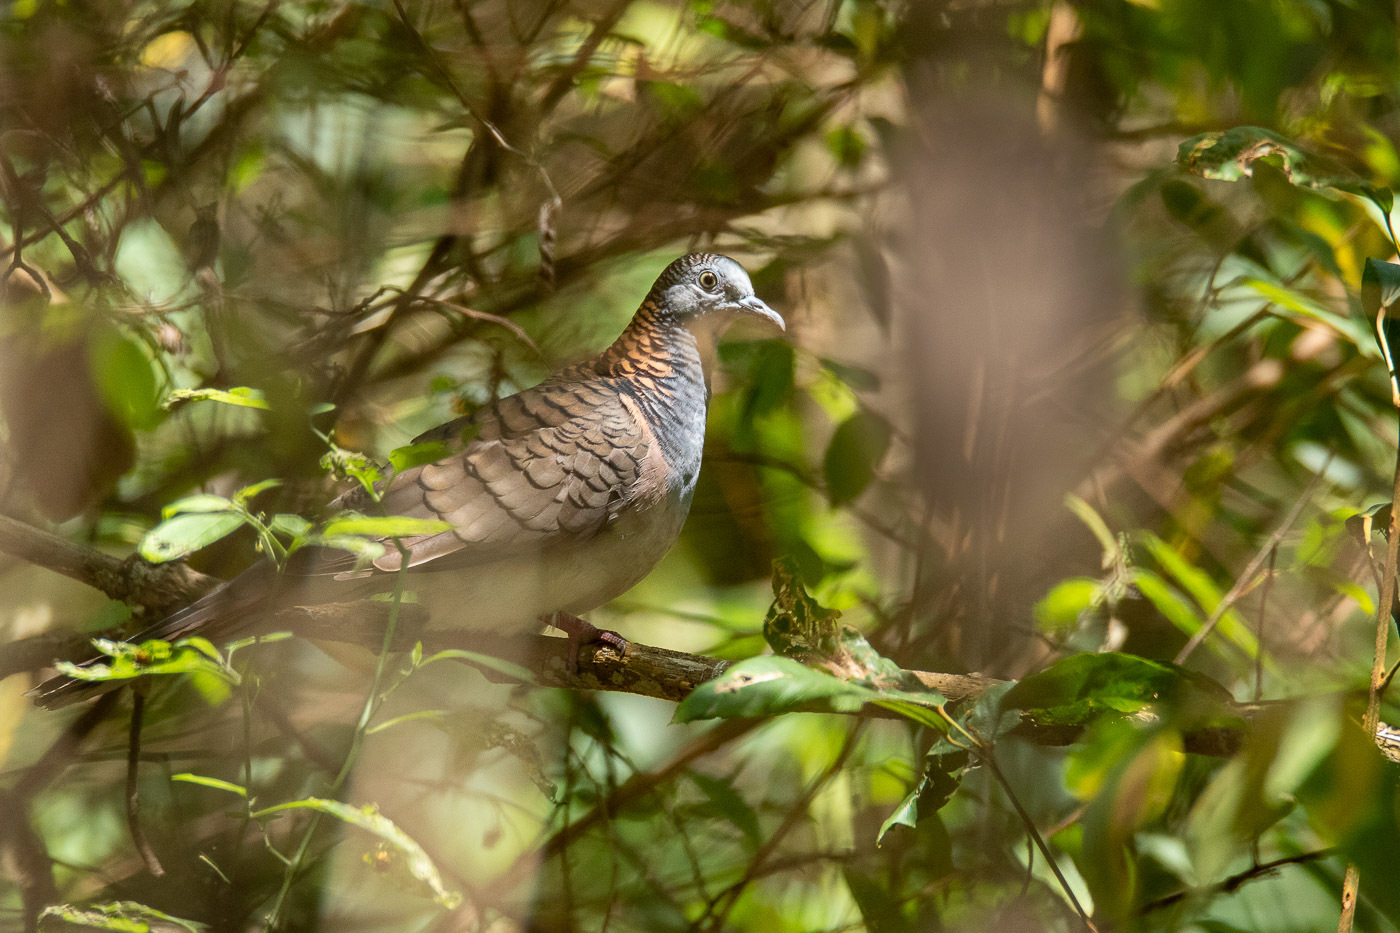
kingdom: Animalia
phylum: Chordata
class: Aves
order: Columbiformes
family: Columbidae
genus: Geopelia
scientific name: Geopelia humeralis
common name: Bar-shouldered dove
